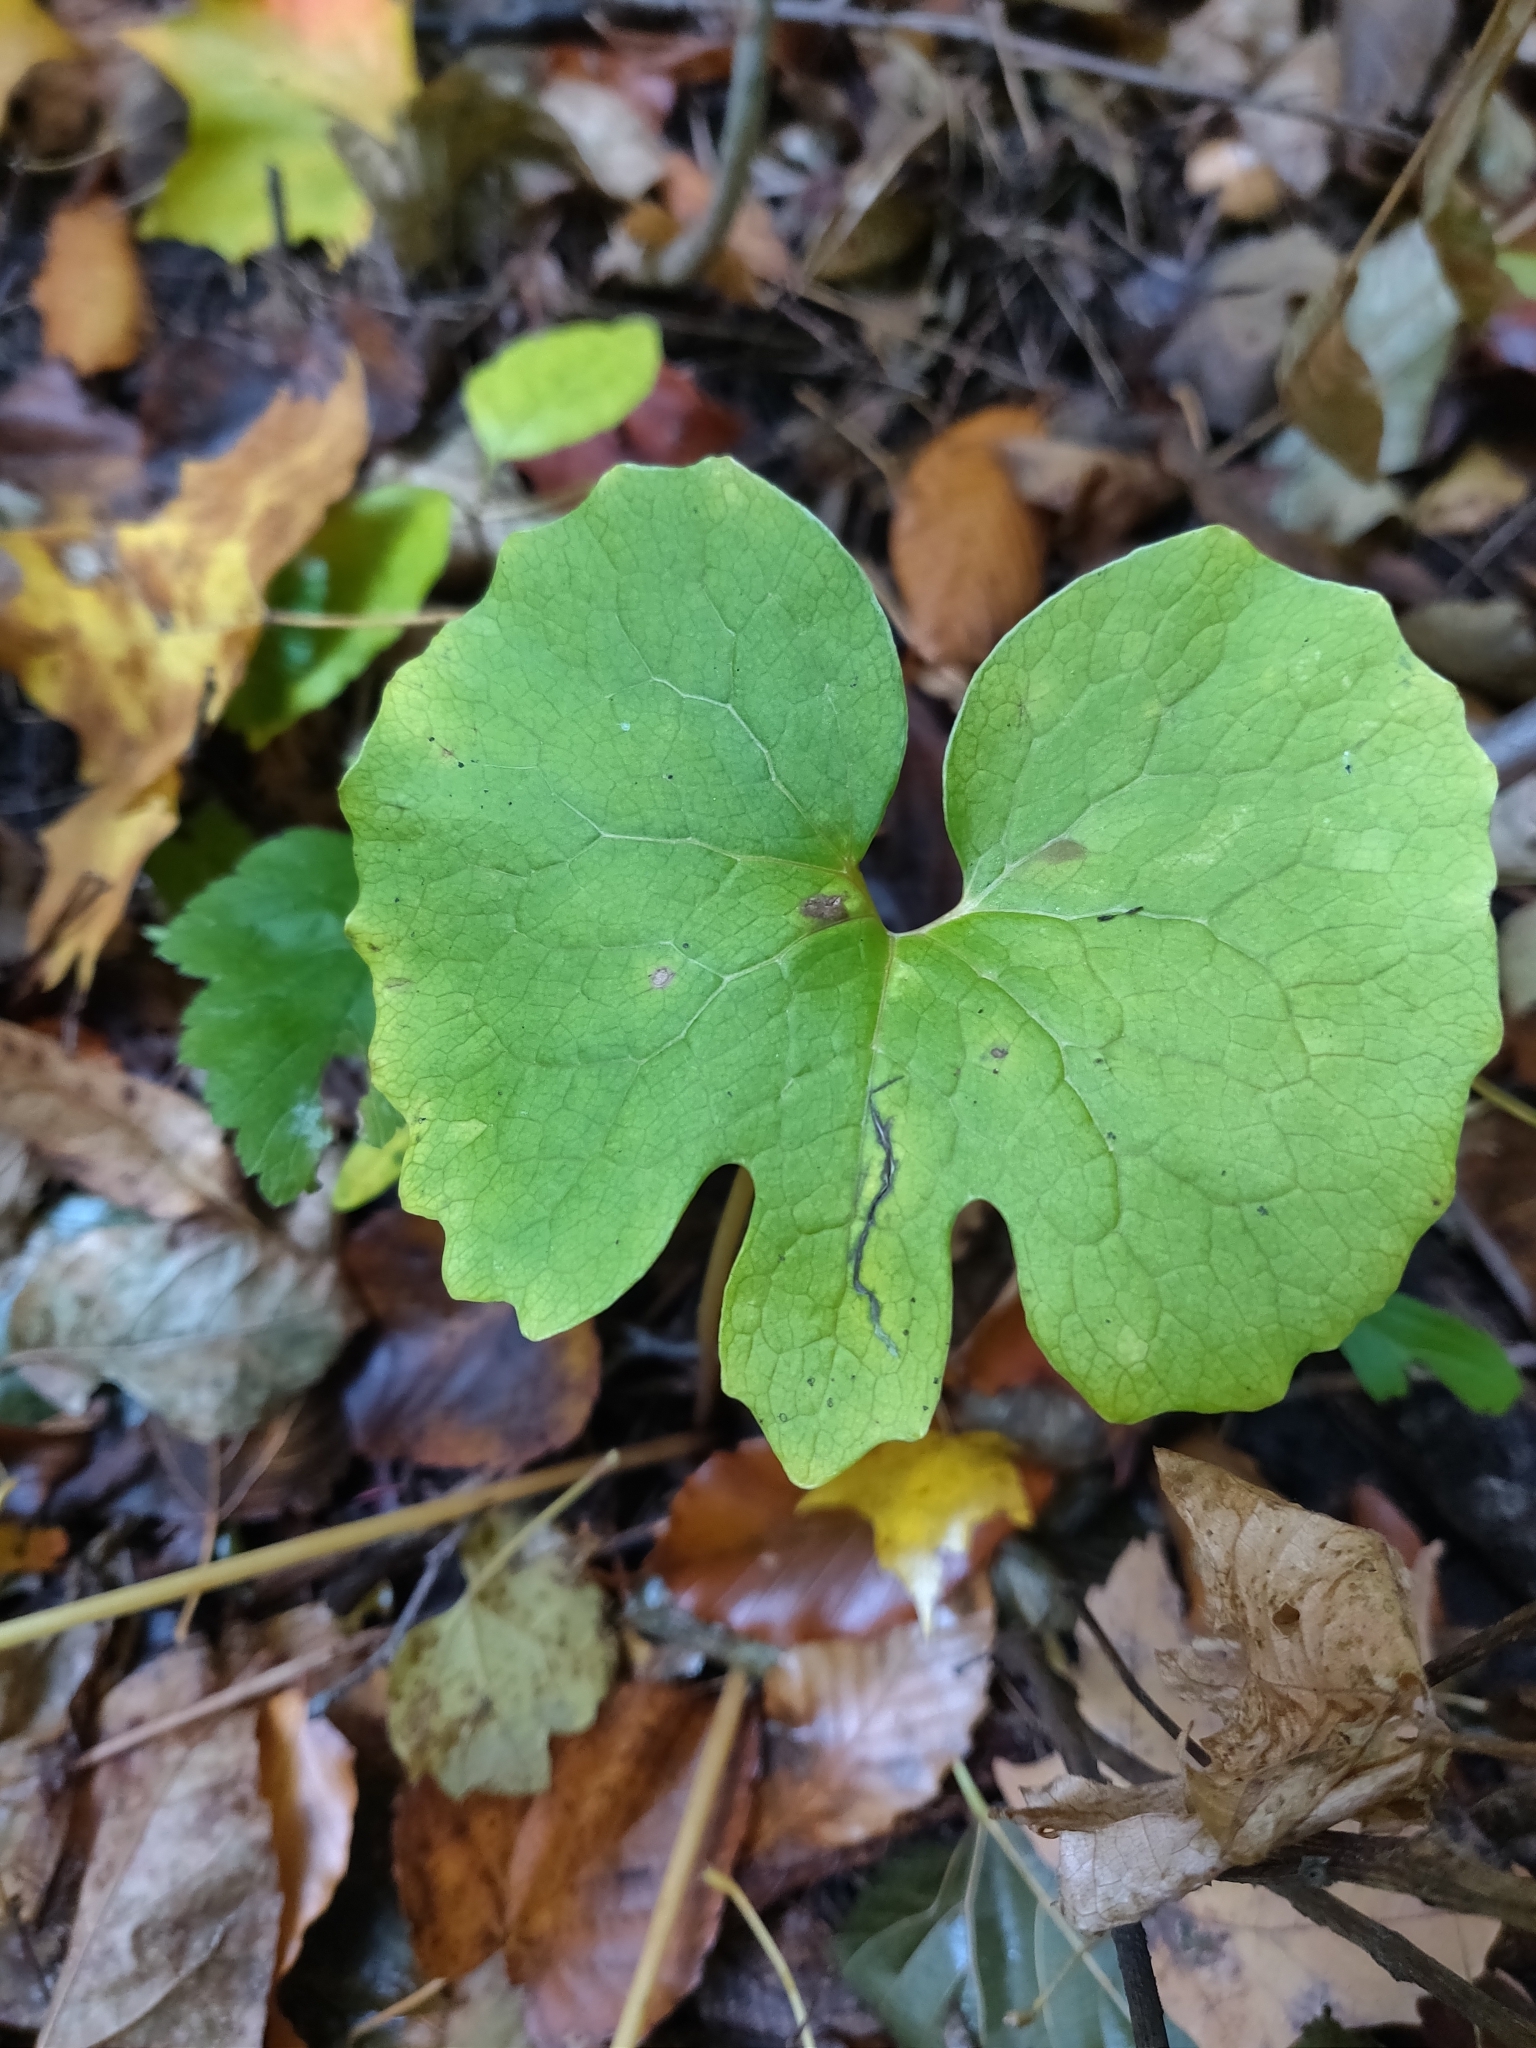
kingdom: Plantae
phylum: Tracheophyta
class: Magnoliopsida
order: Ranunculales
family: Papaveraceae
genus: Sanguinaria
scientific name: Sanguinaria canadensis
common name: Bloodroot
